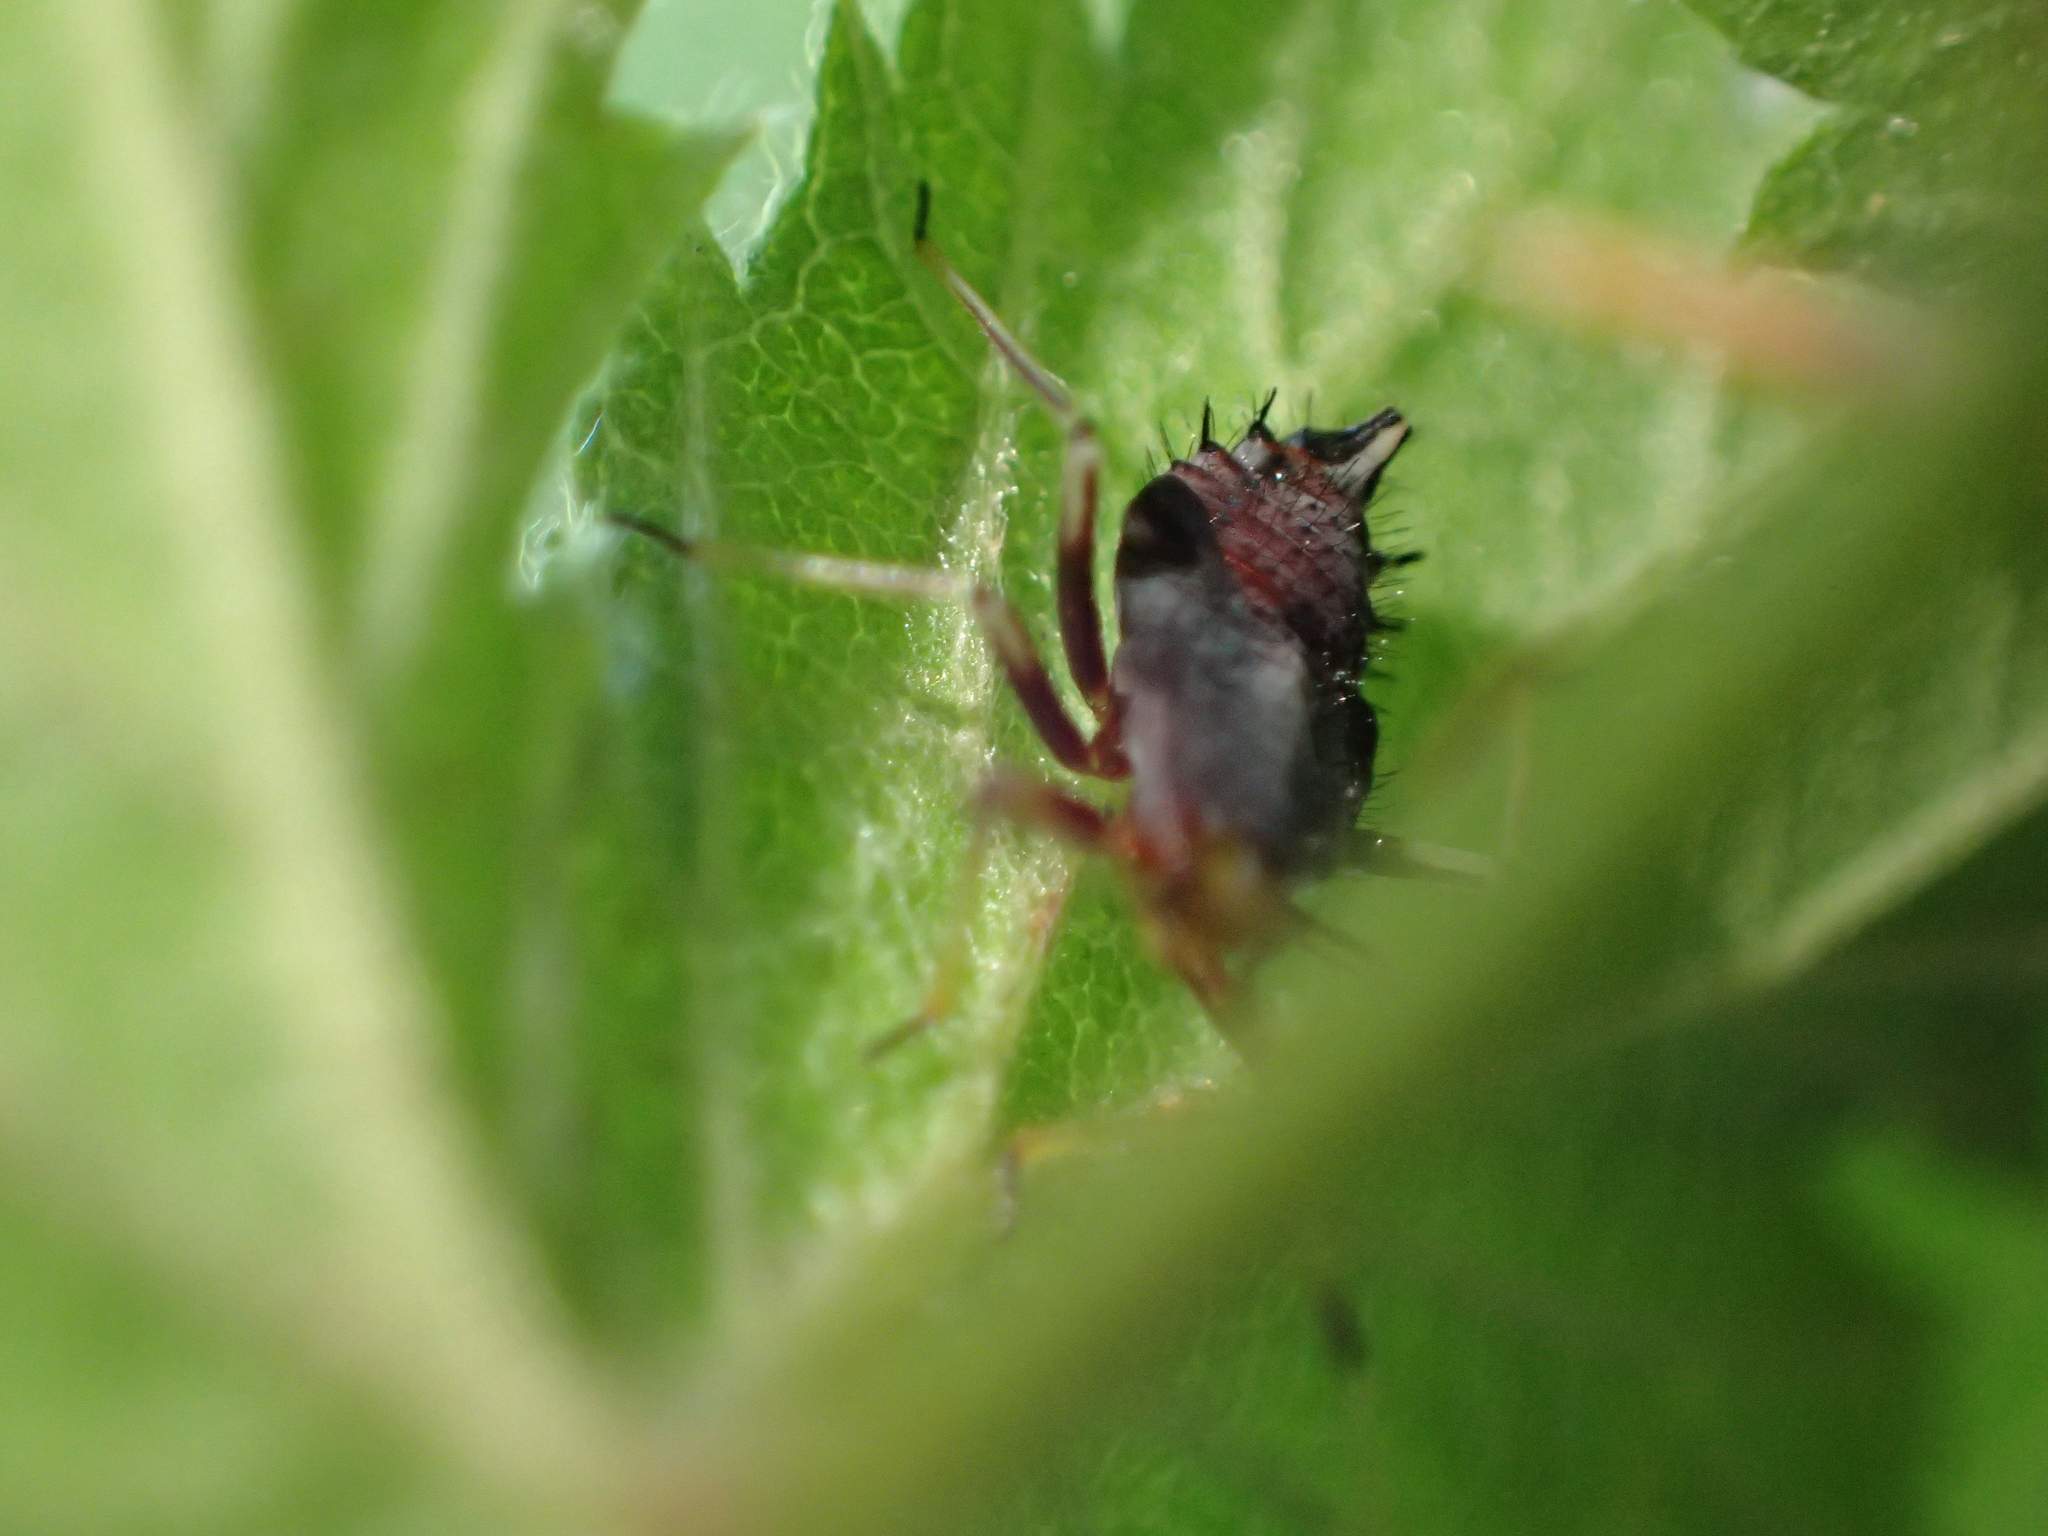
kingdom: Animalia
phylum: Arthropoda
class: Insecta
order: Hemiptera
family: Miridae
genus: Deraeocoris
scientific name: Deraeocoris ruber
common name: Plant bug
